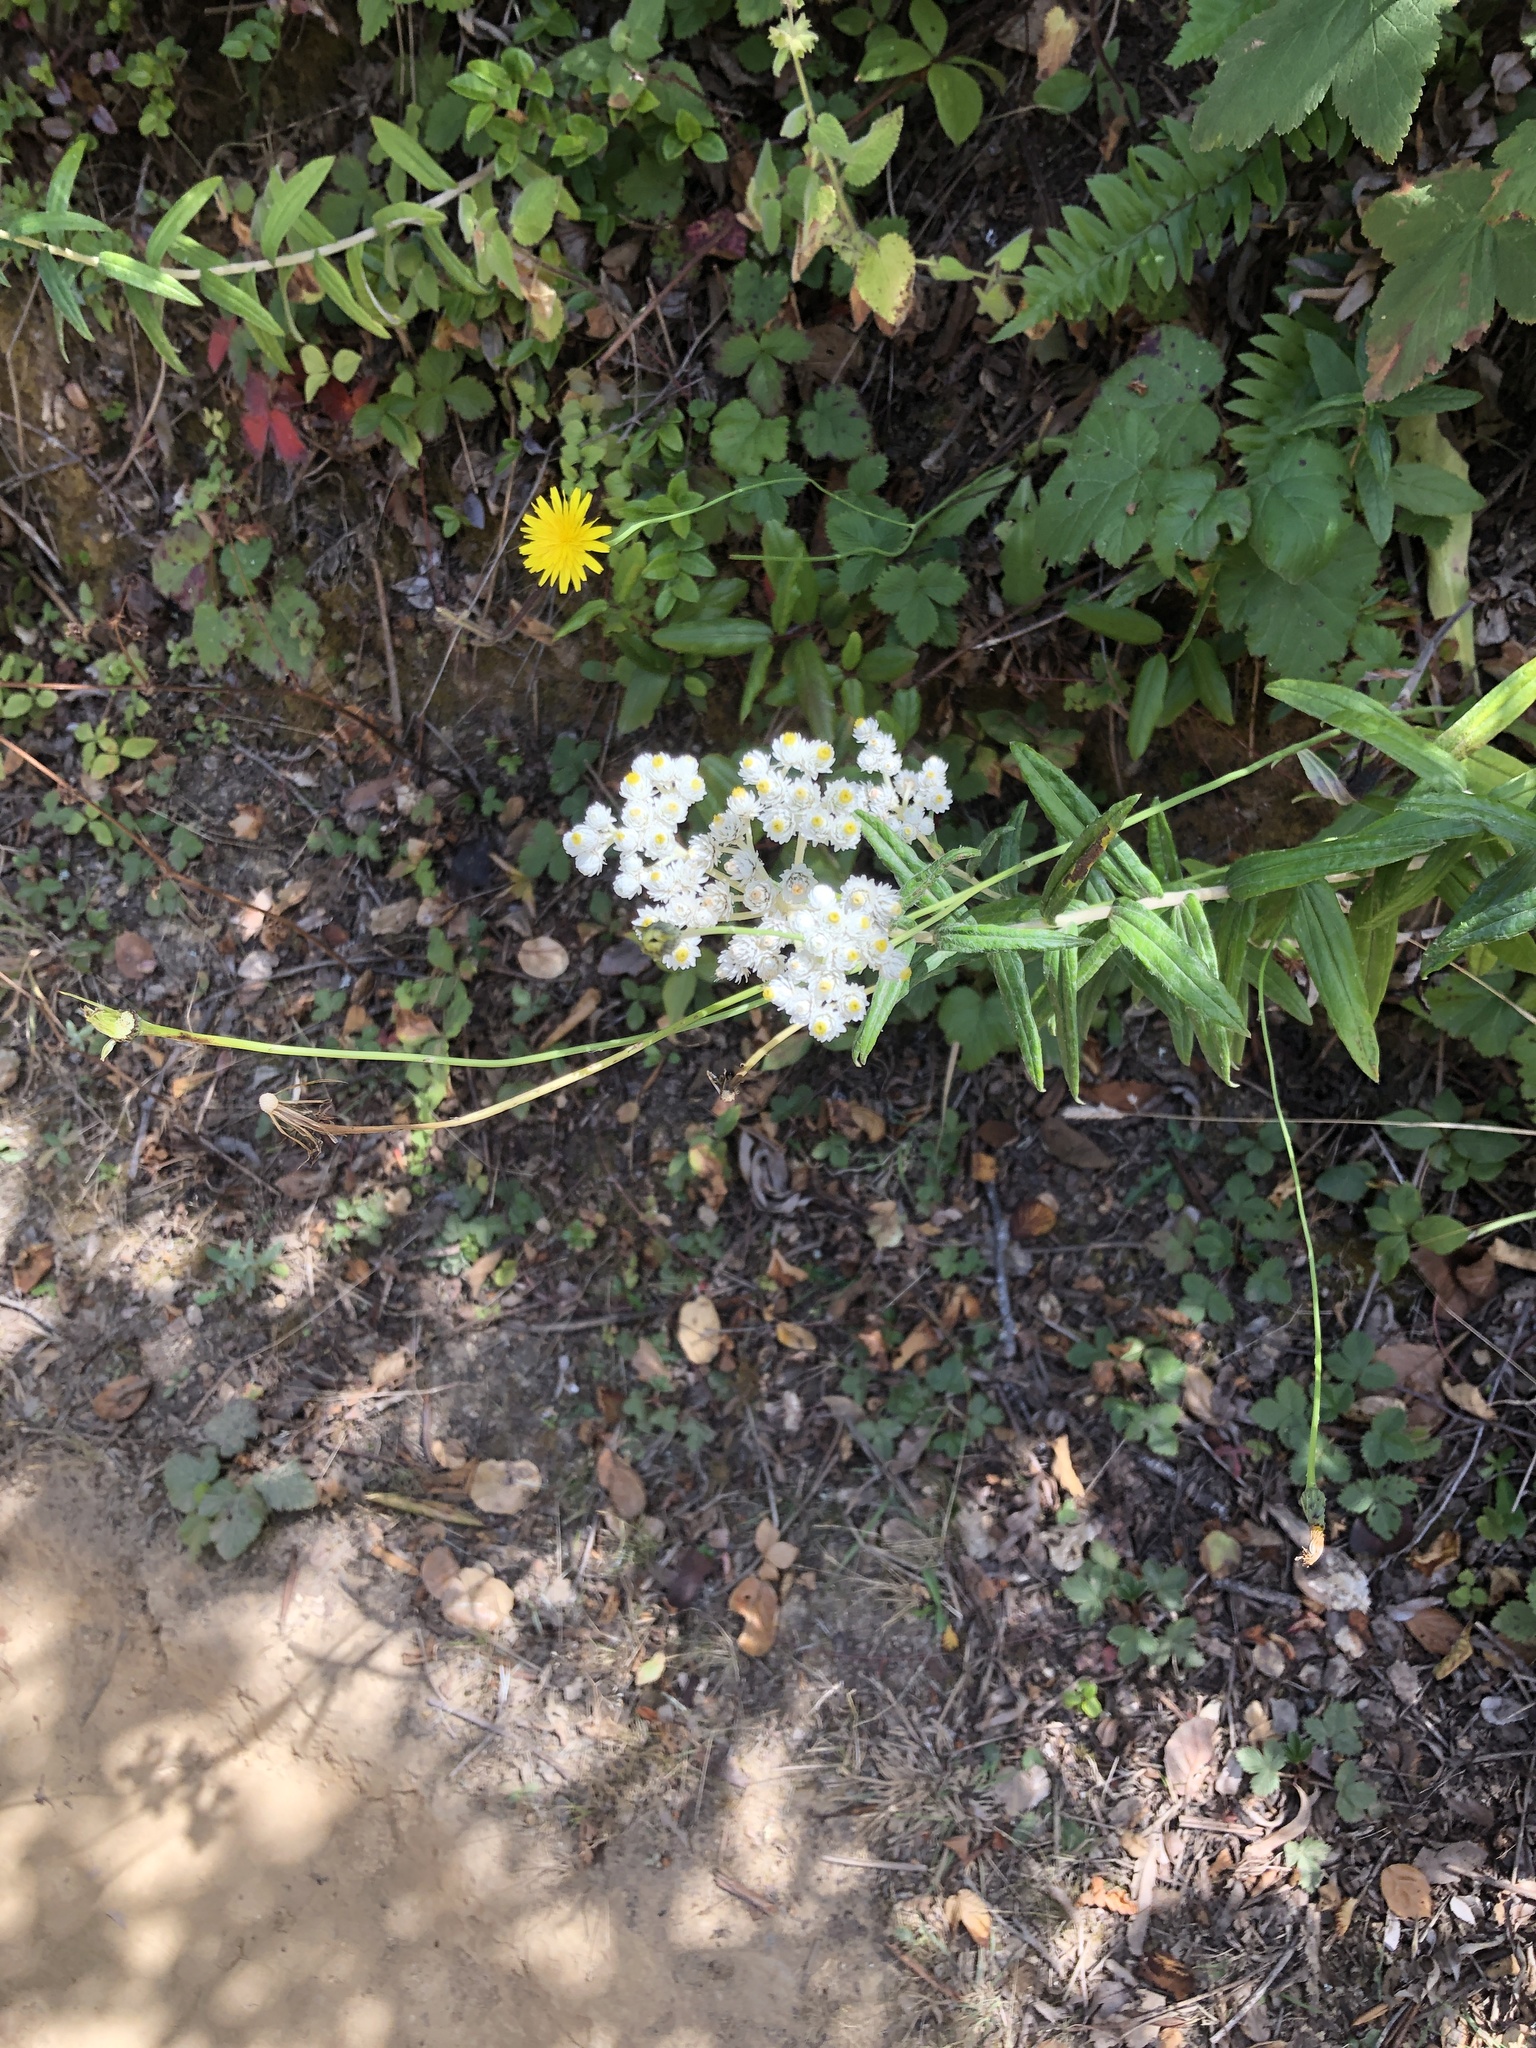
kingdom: Plantae
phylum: Tracheophyta
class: Magnoliopsida
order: Asterales
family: Asteraceae
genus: Anaphalis
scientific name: Anaphalis margaritacea
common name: Pearly everlasting
